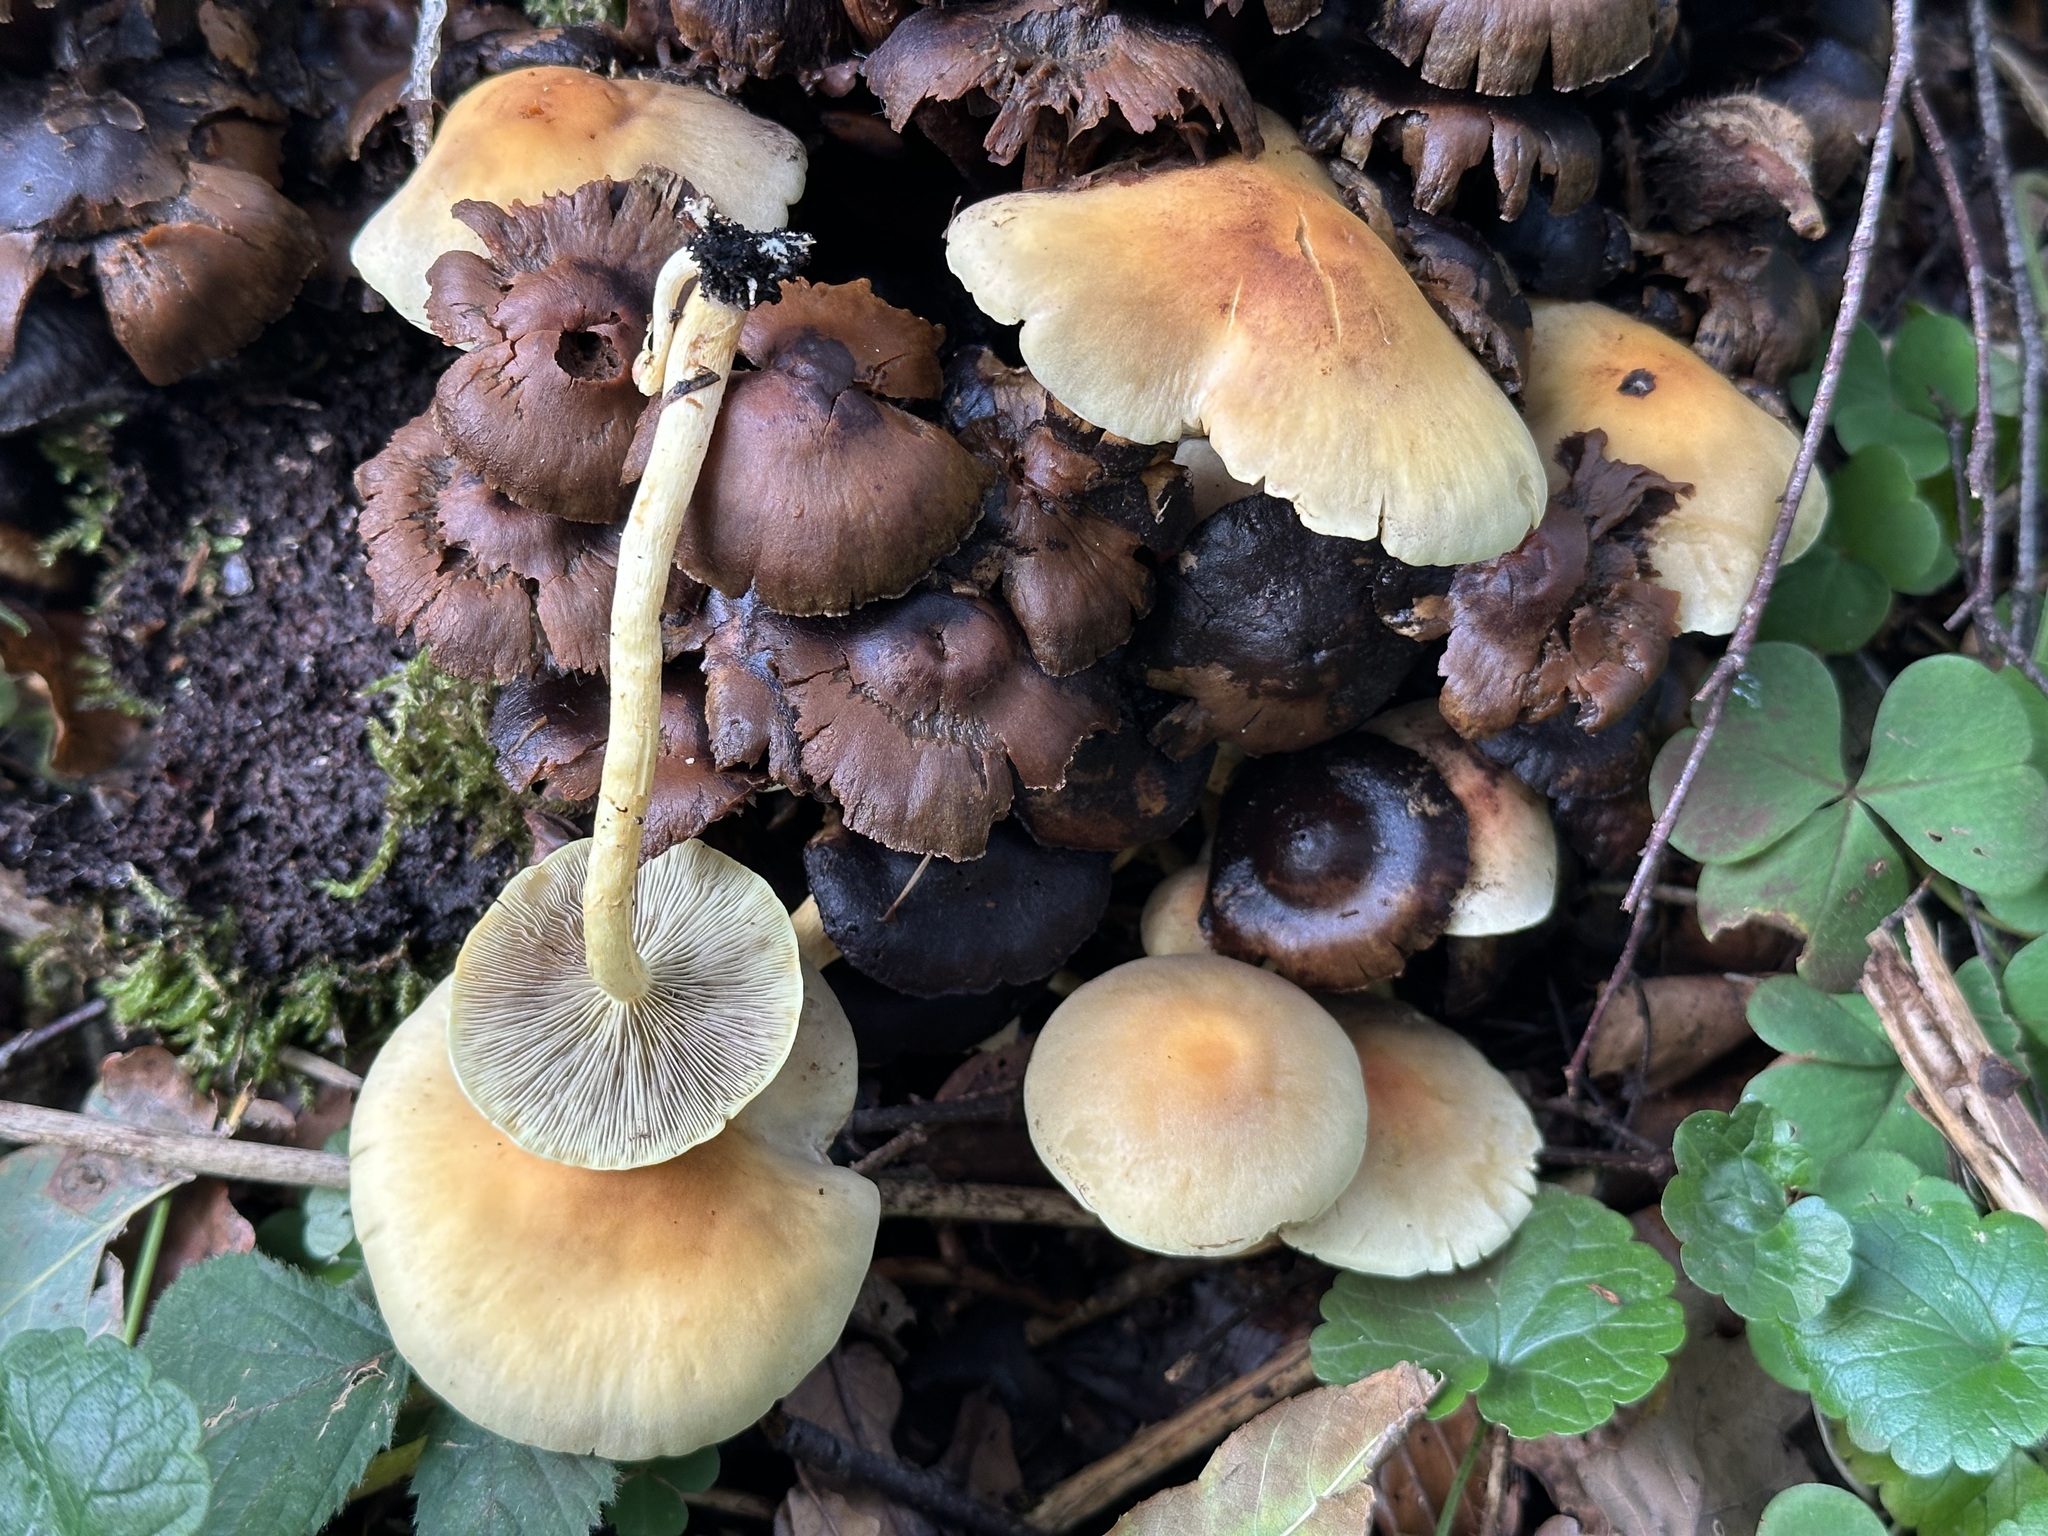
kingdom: Fungi
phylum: Basidiomycota
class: Agaricomycetes
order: Agaricales
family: Strophariaceae
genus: Hypholoma
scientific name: Hypholoma fasciculare
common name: Sulphur tuft
